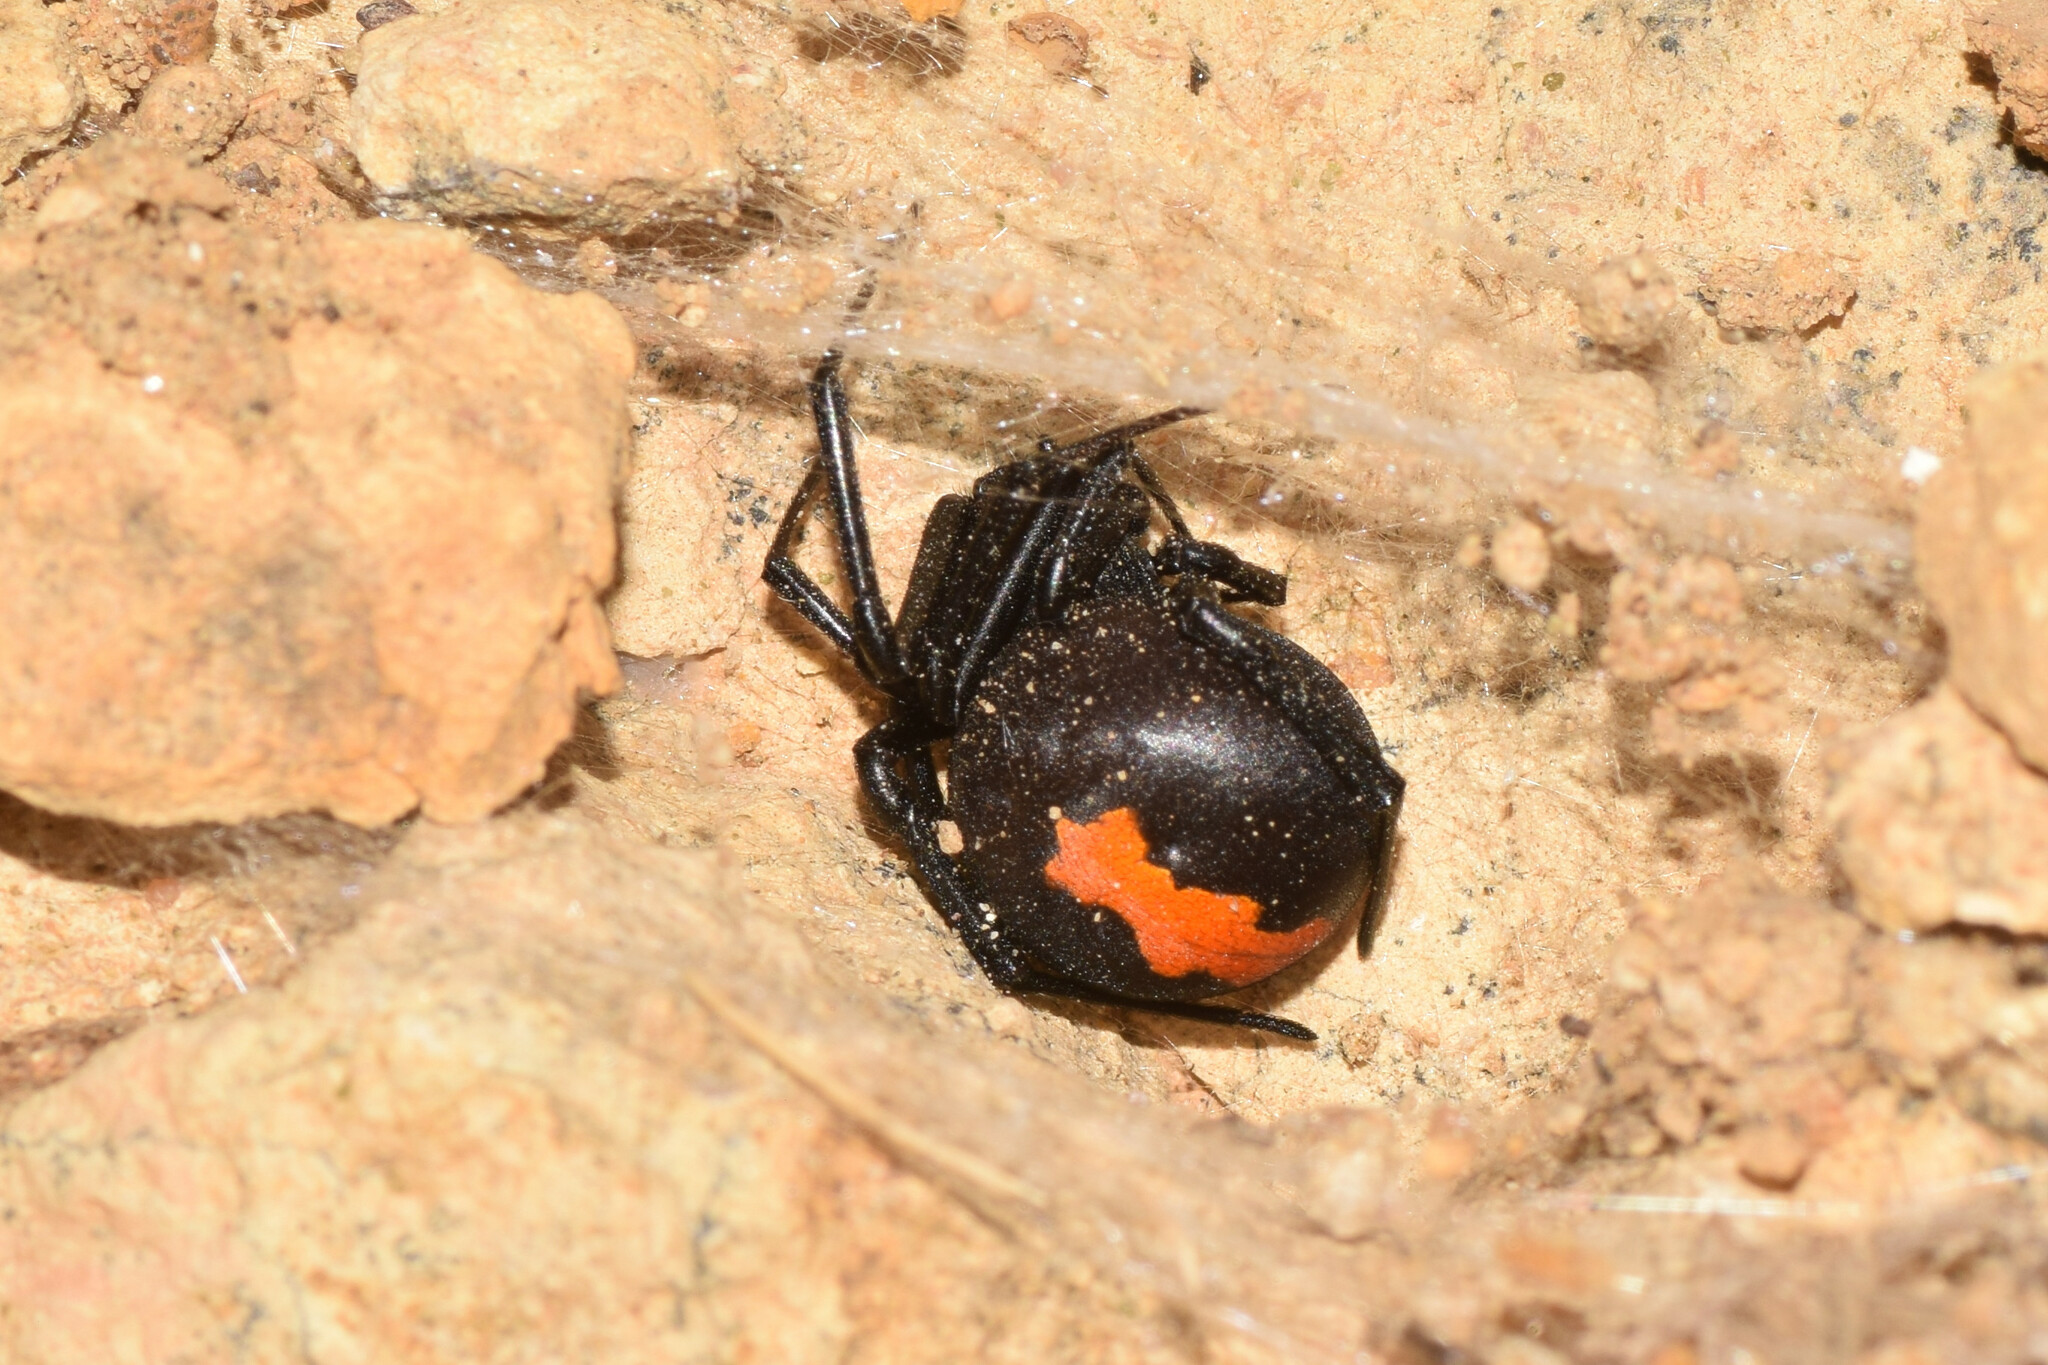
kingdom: Animalia
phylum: Arthropoda
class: Arachnida
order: Araneae
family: Theridiidae
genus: Latrodectus
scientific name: Latrodectus erythromelas
